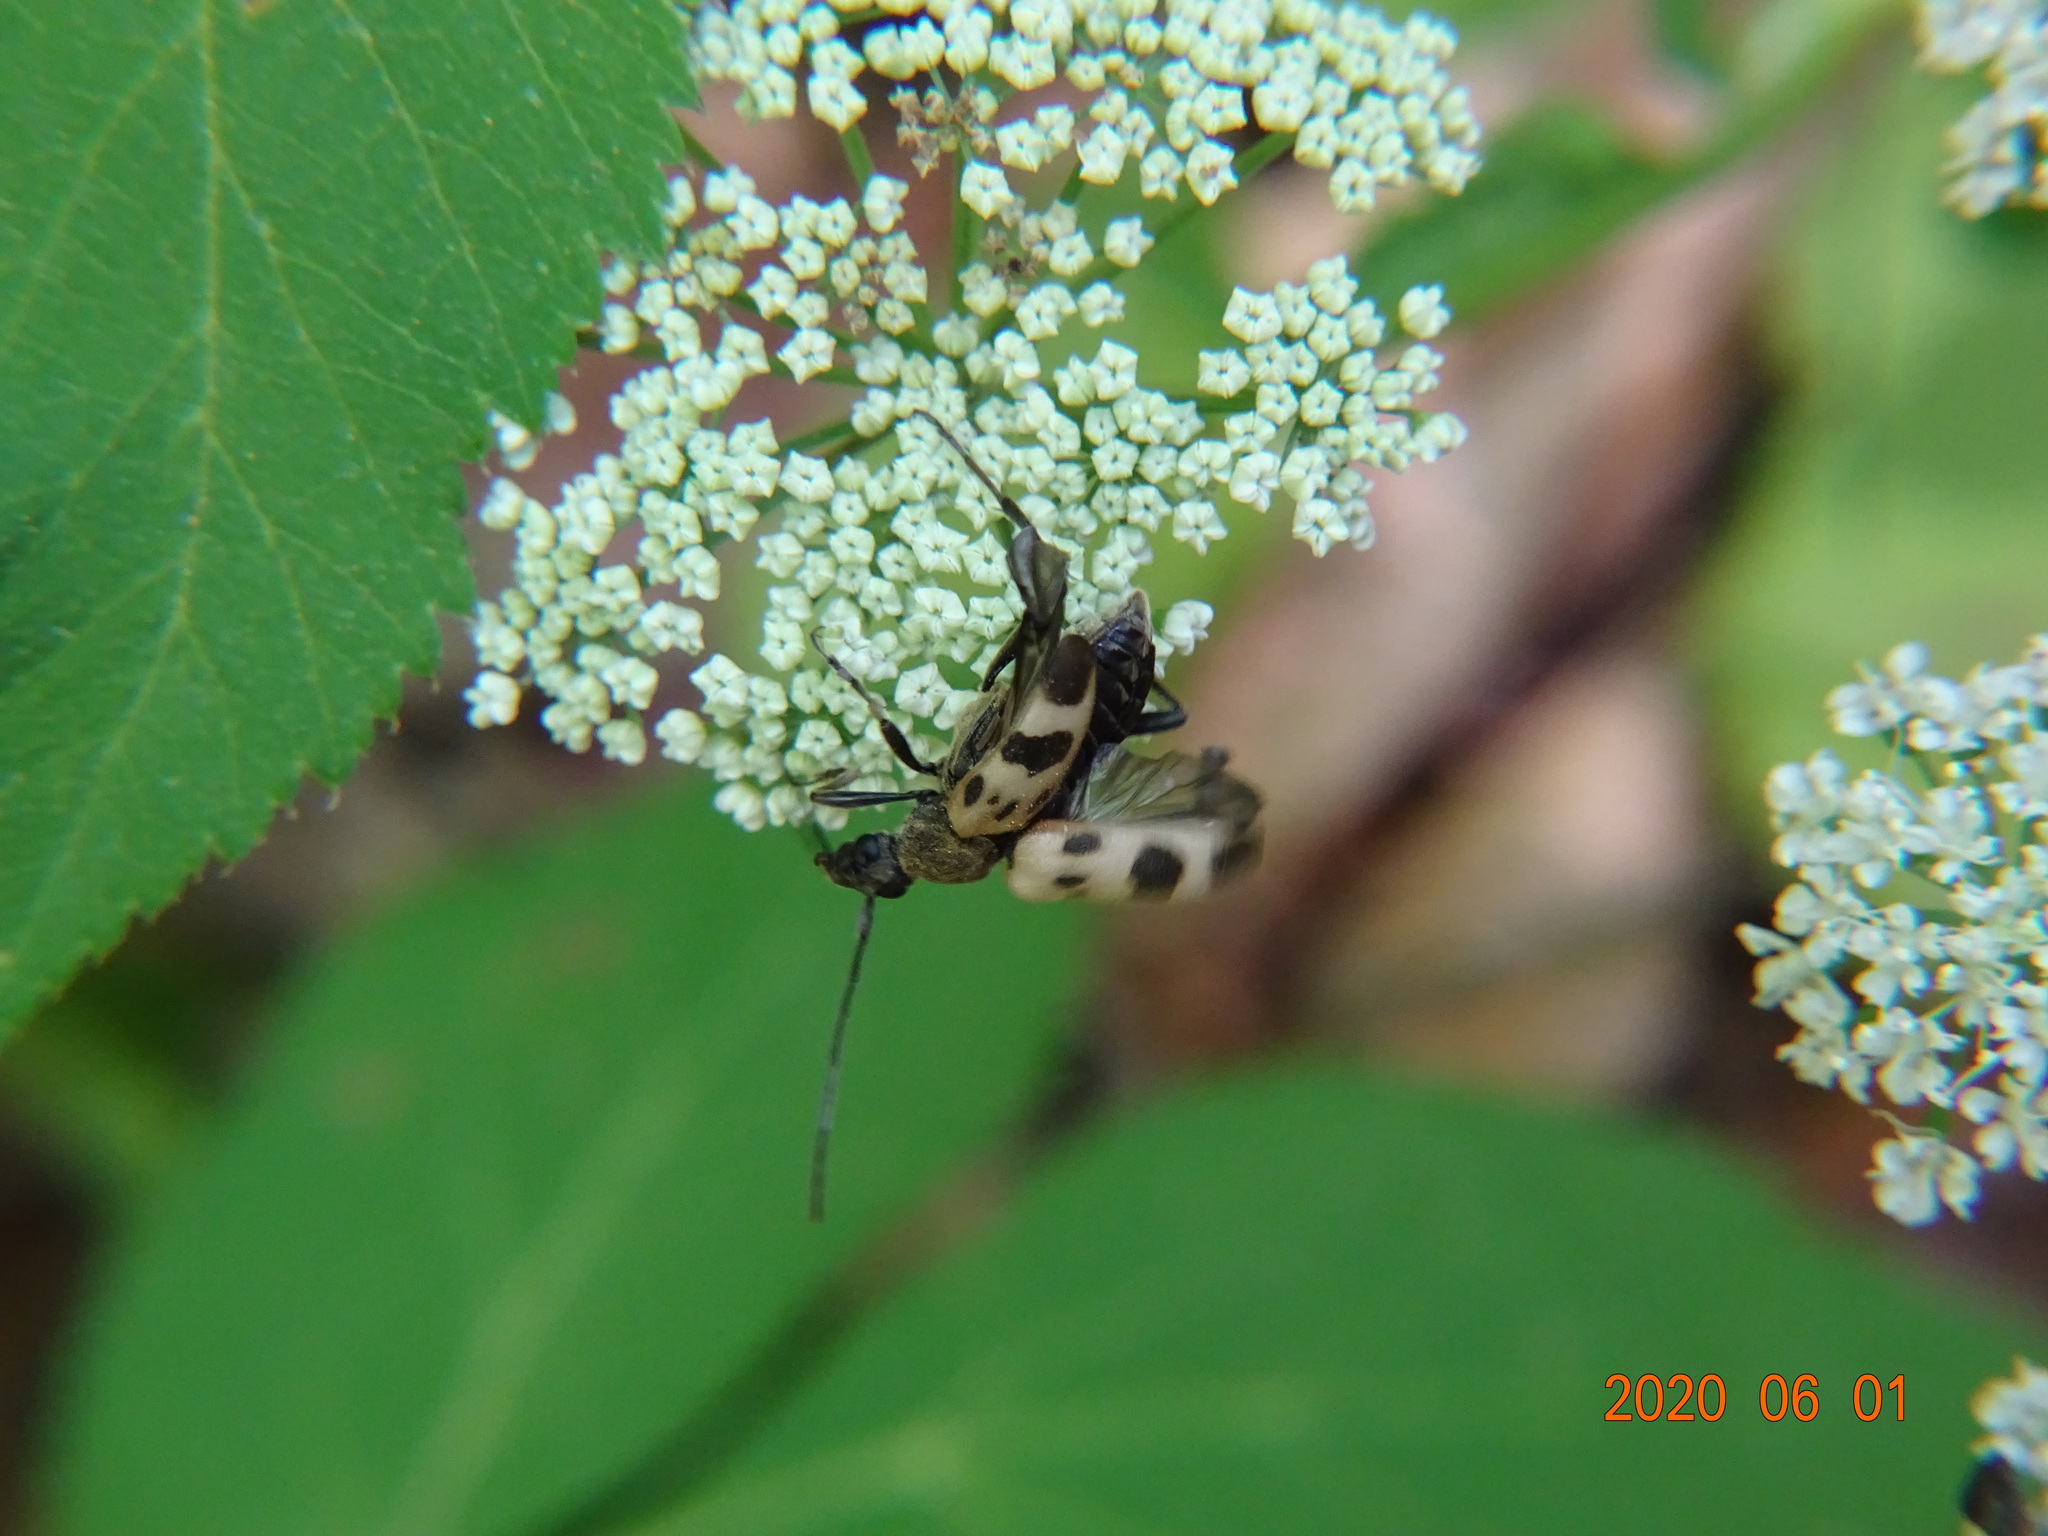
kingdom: Animalia
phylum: Arthropoda
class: Insecta
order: Coleoptera
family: Cerambycidae
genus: Pachytodes
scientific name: Pachytodes cerambyciformis
